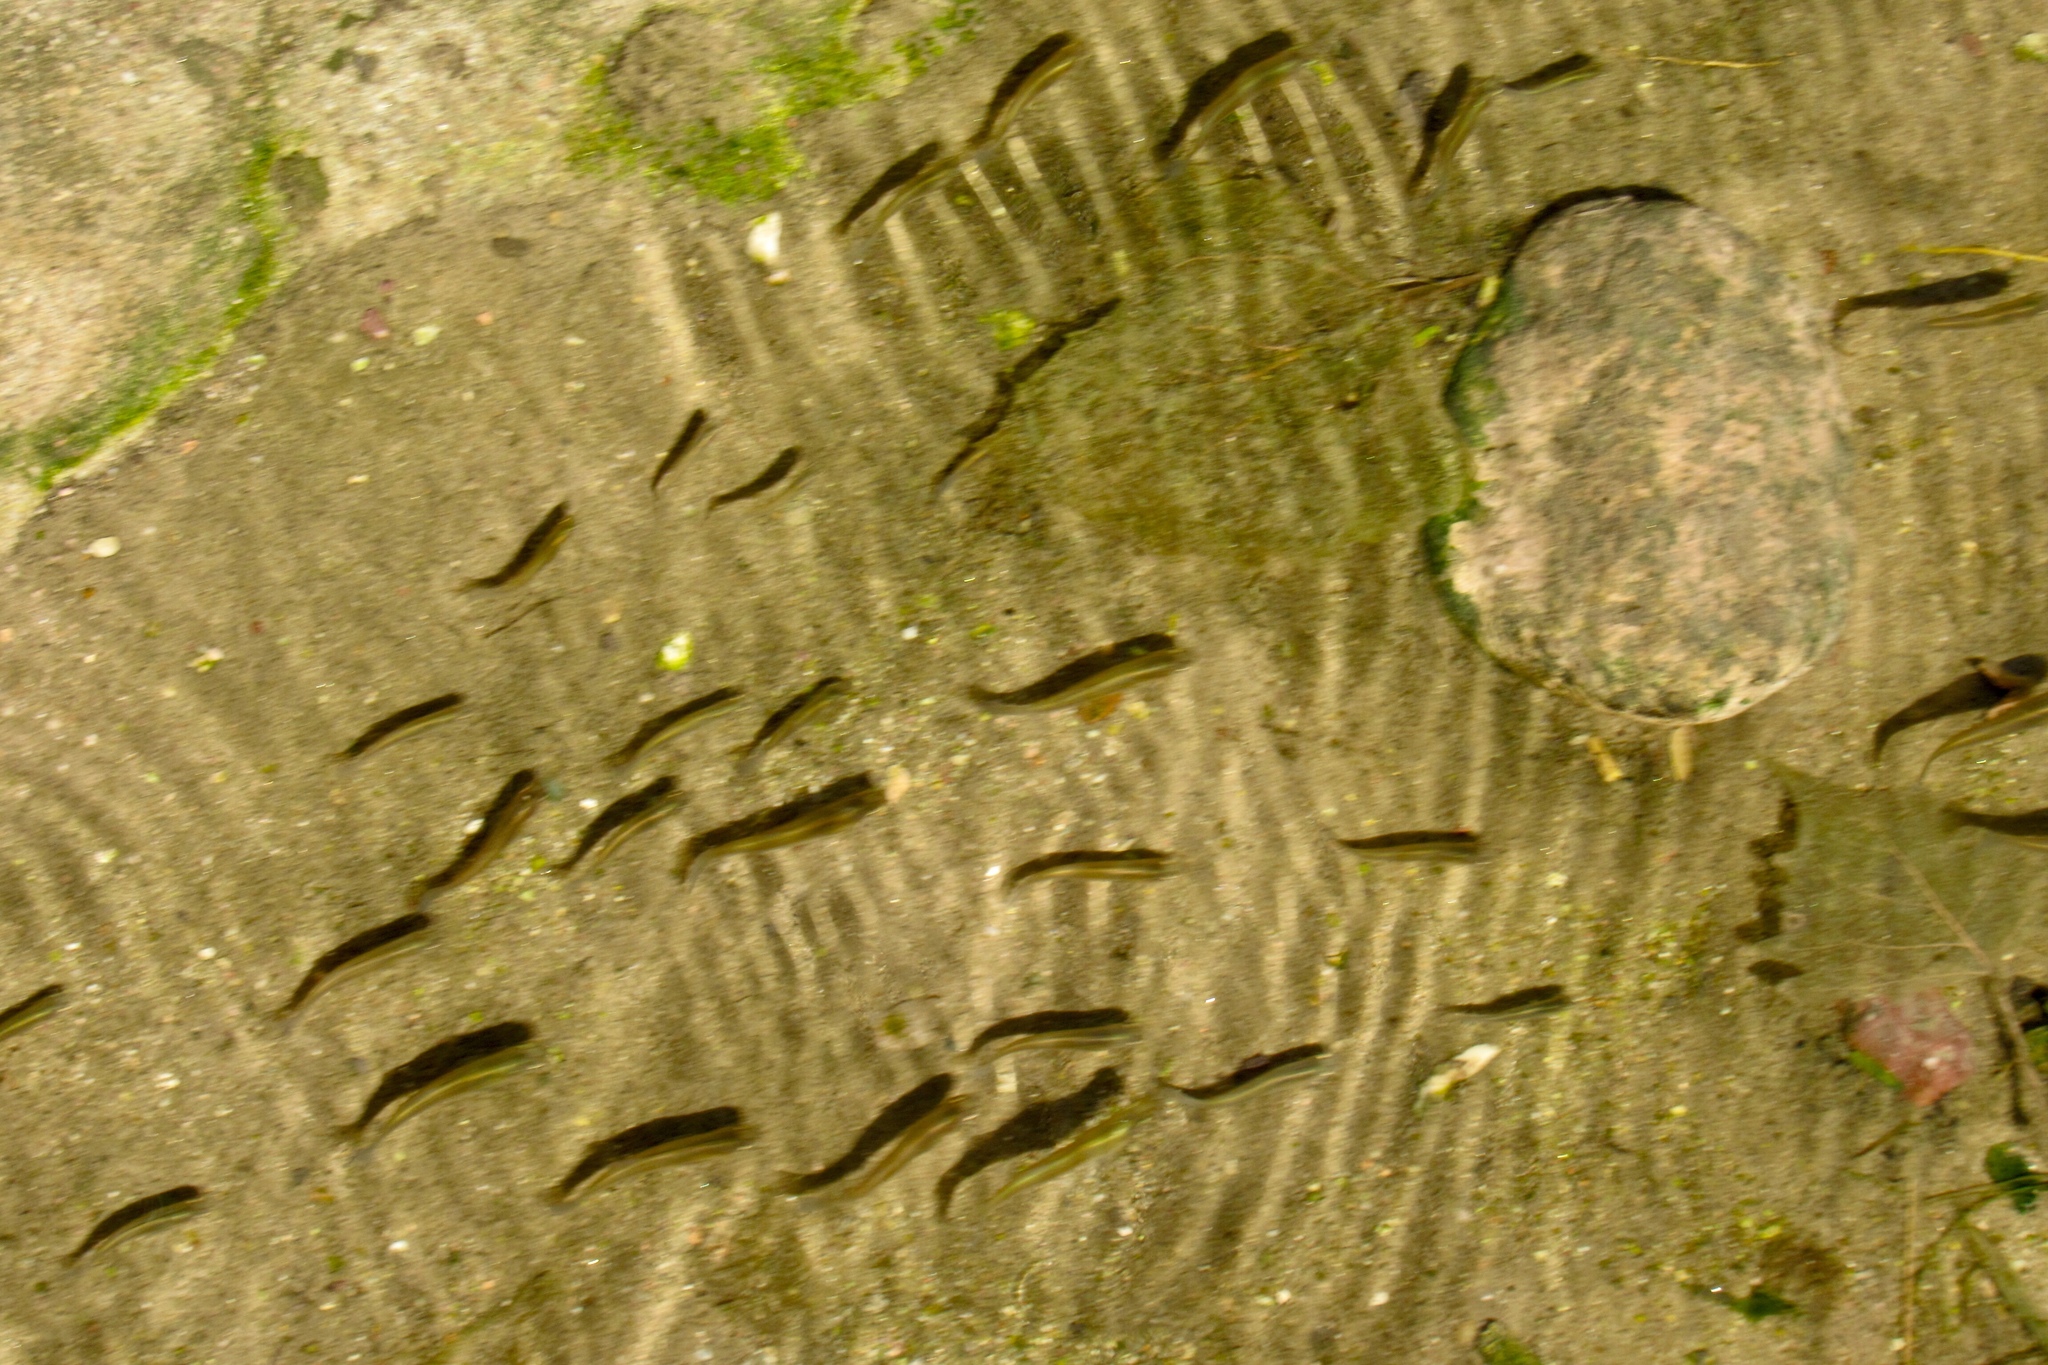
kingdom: Animalia
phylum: Chordata
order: Cyprinodontiformes
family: Poeciliidae
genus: Gambusia
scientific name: Gambusia affinis
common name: Mosquitofish
